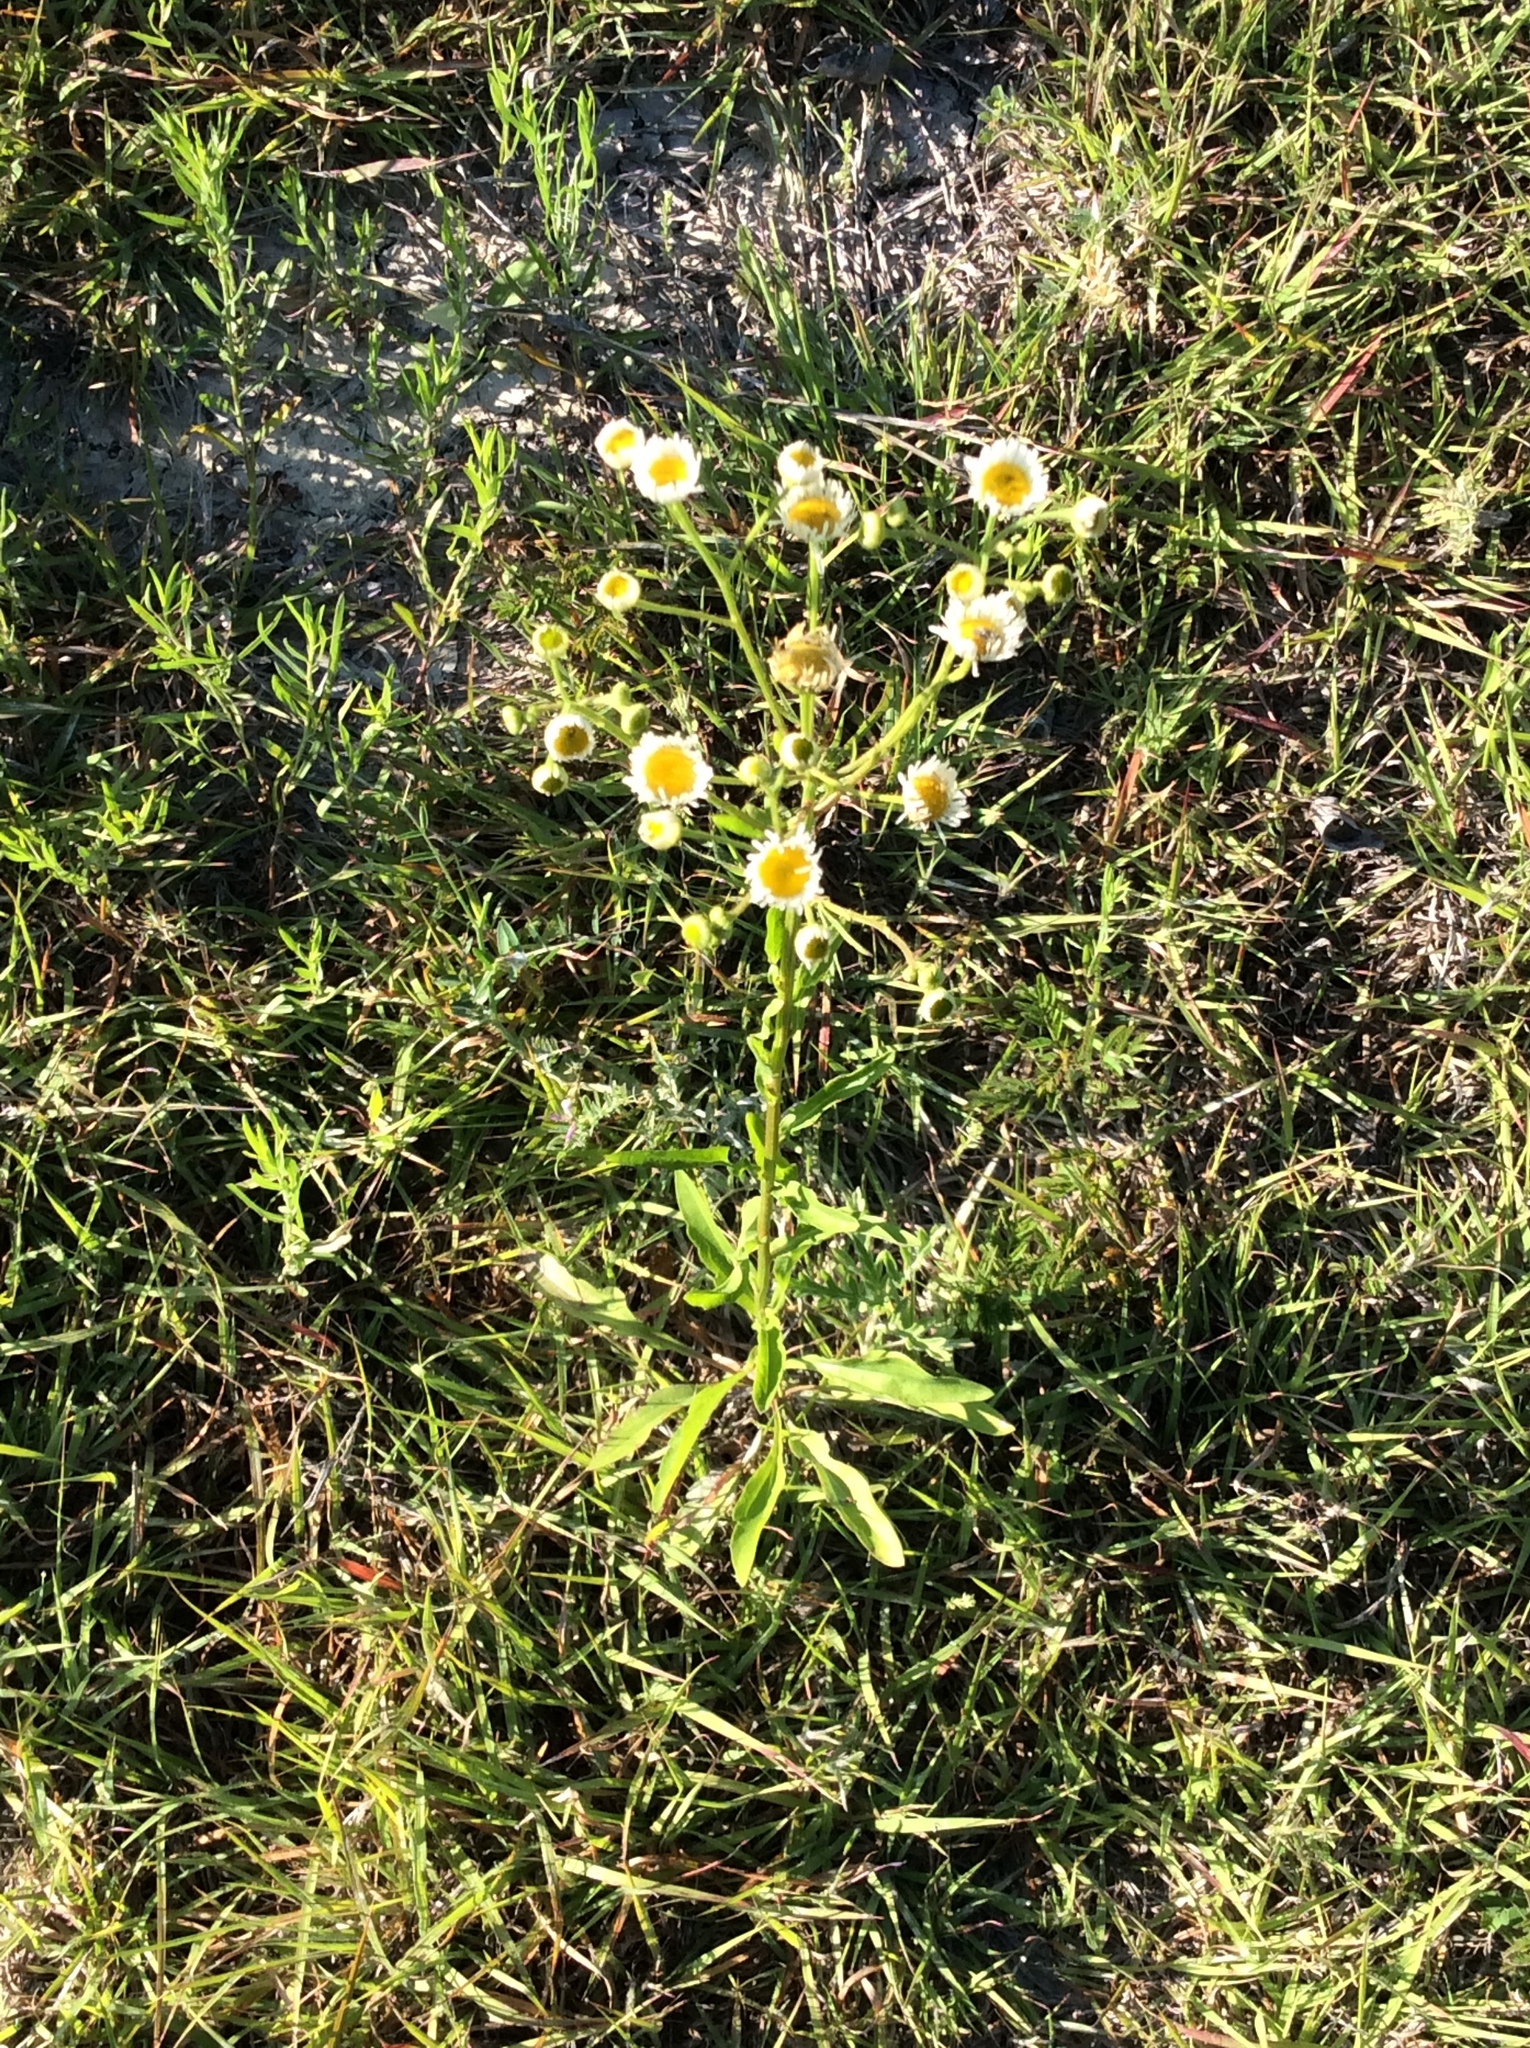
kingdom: Plantae
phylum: Tracheophyta
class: Magnoliopsida
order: Asterales
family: Asteraceae
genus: Erigeron
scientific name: Erigeron strigosus
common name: Common eastern fleabane
